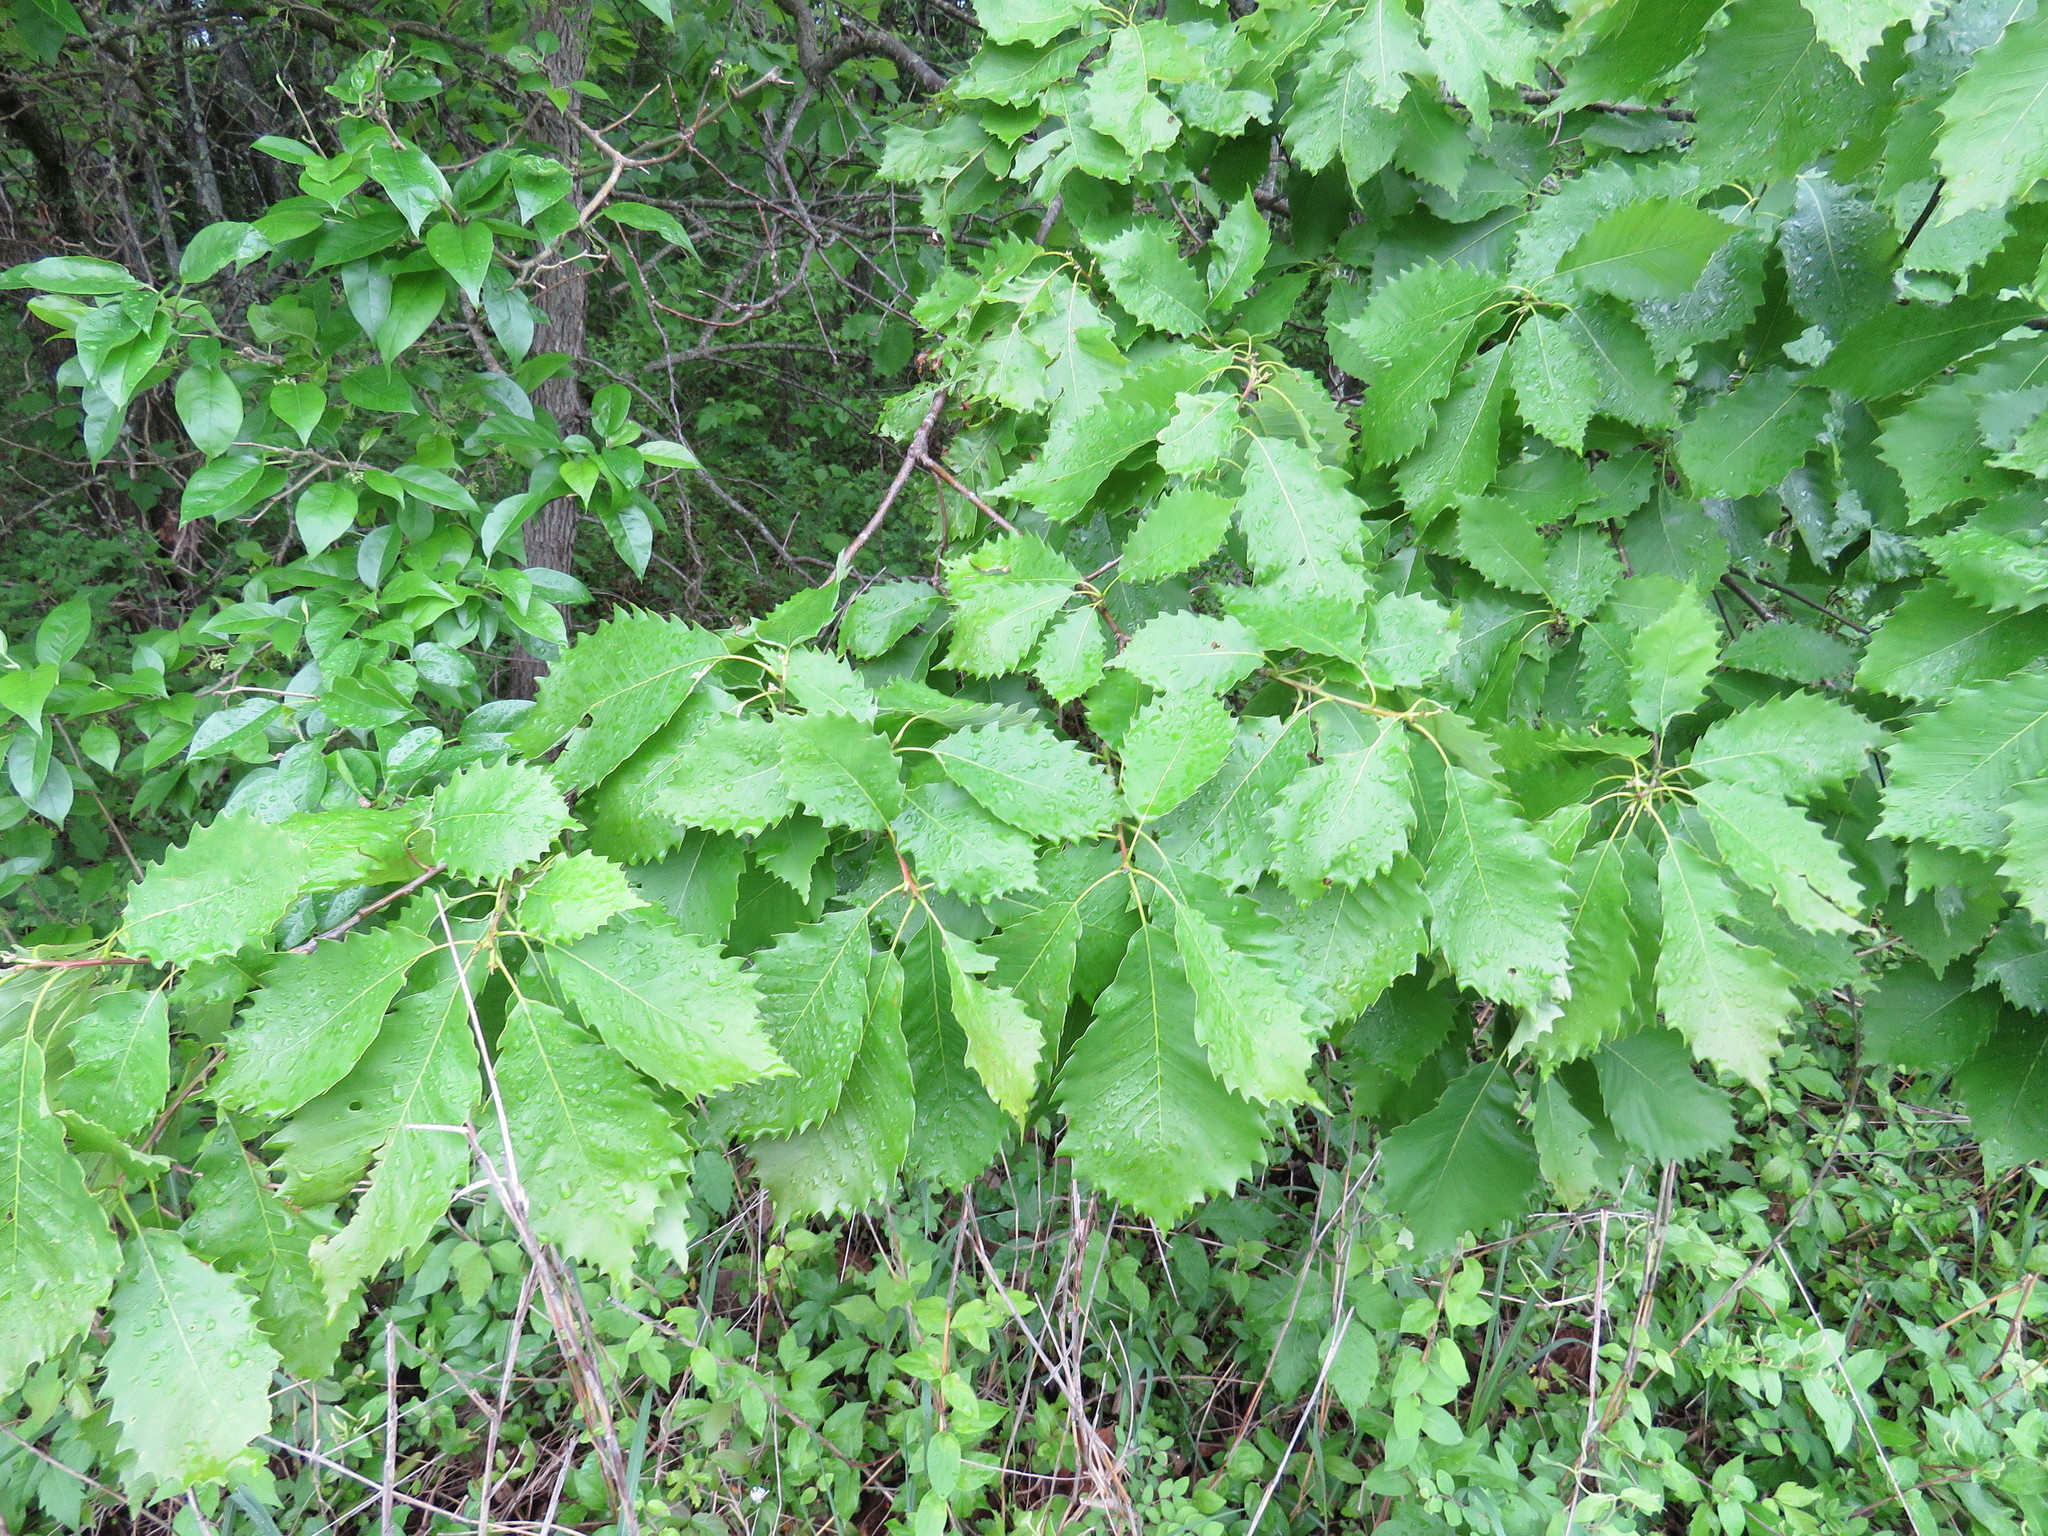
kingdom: Plantae
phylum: Tracheophyta
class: Magnoliopsida
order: Fagales
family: Fagaceae
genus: Quercus
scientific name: Quercus muehlenbergii
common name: Chinkapin oak
